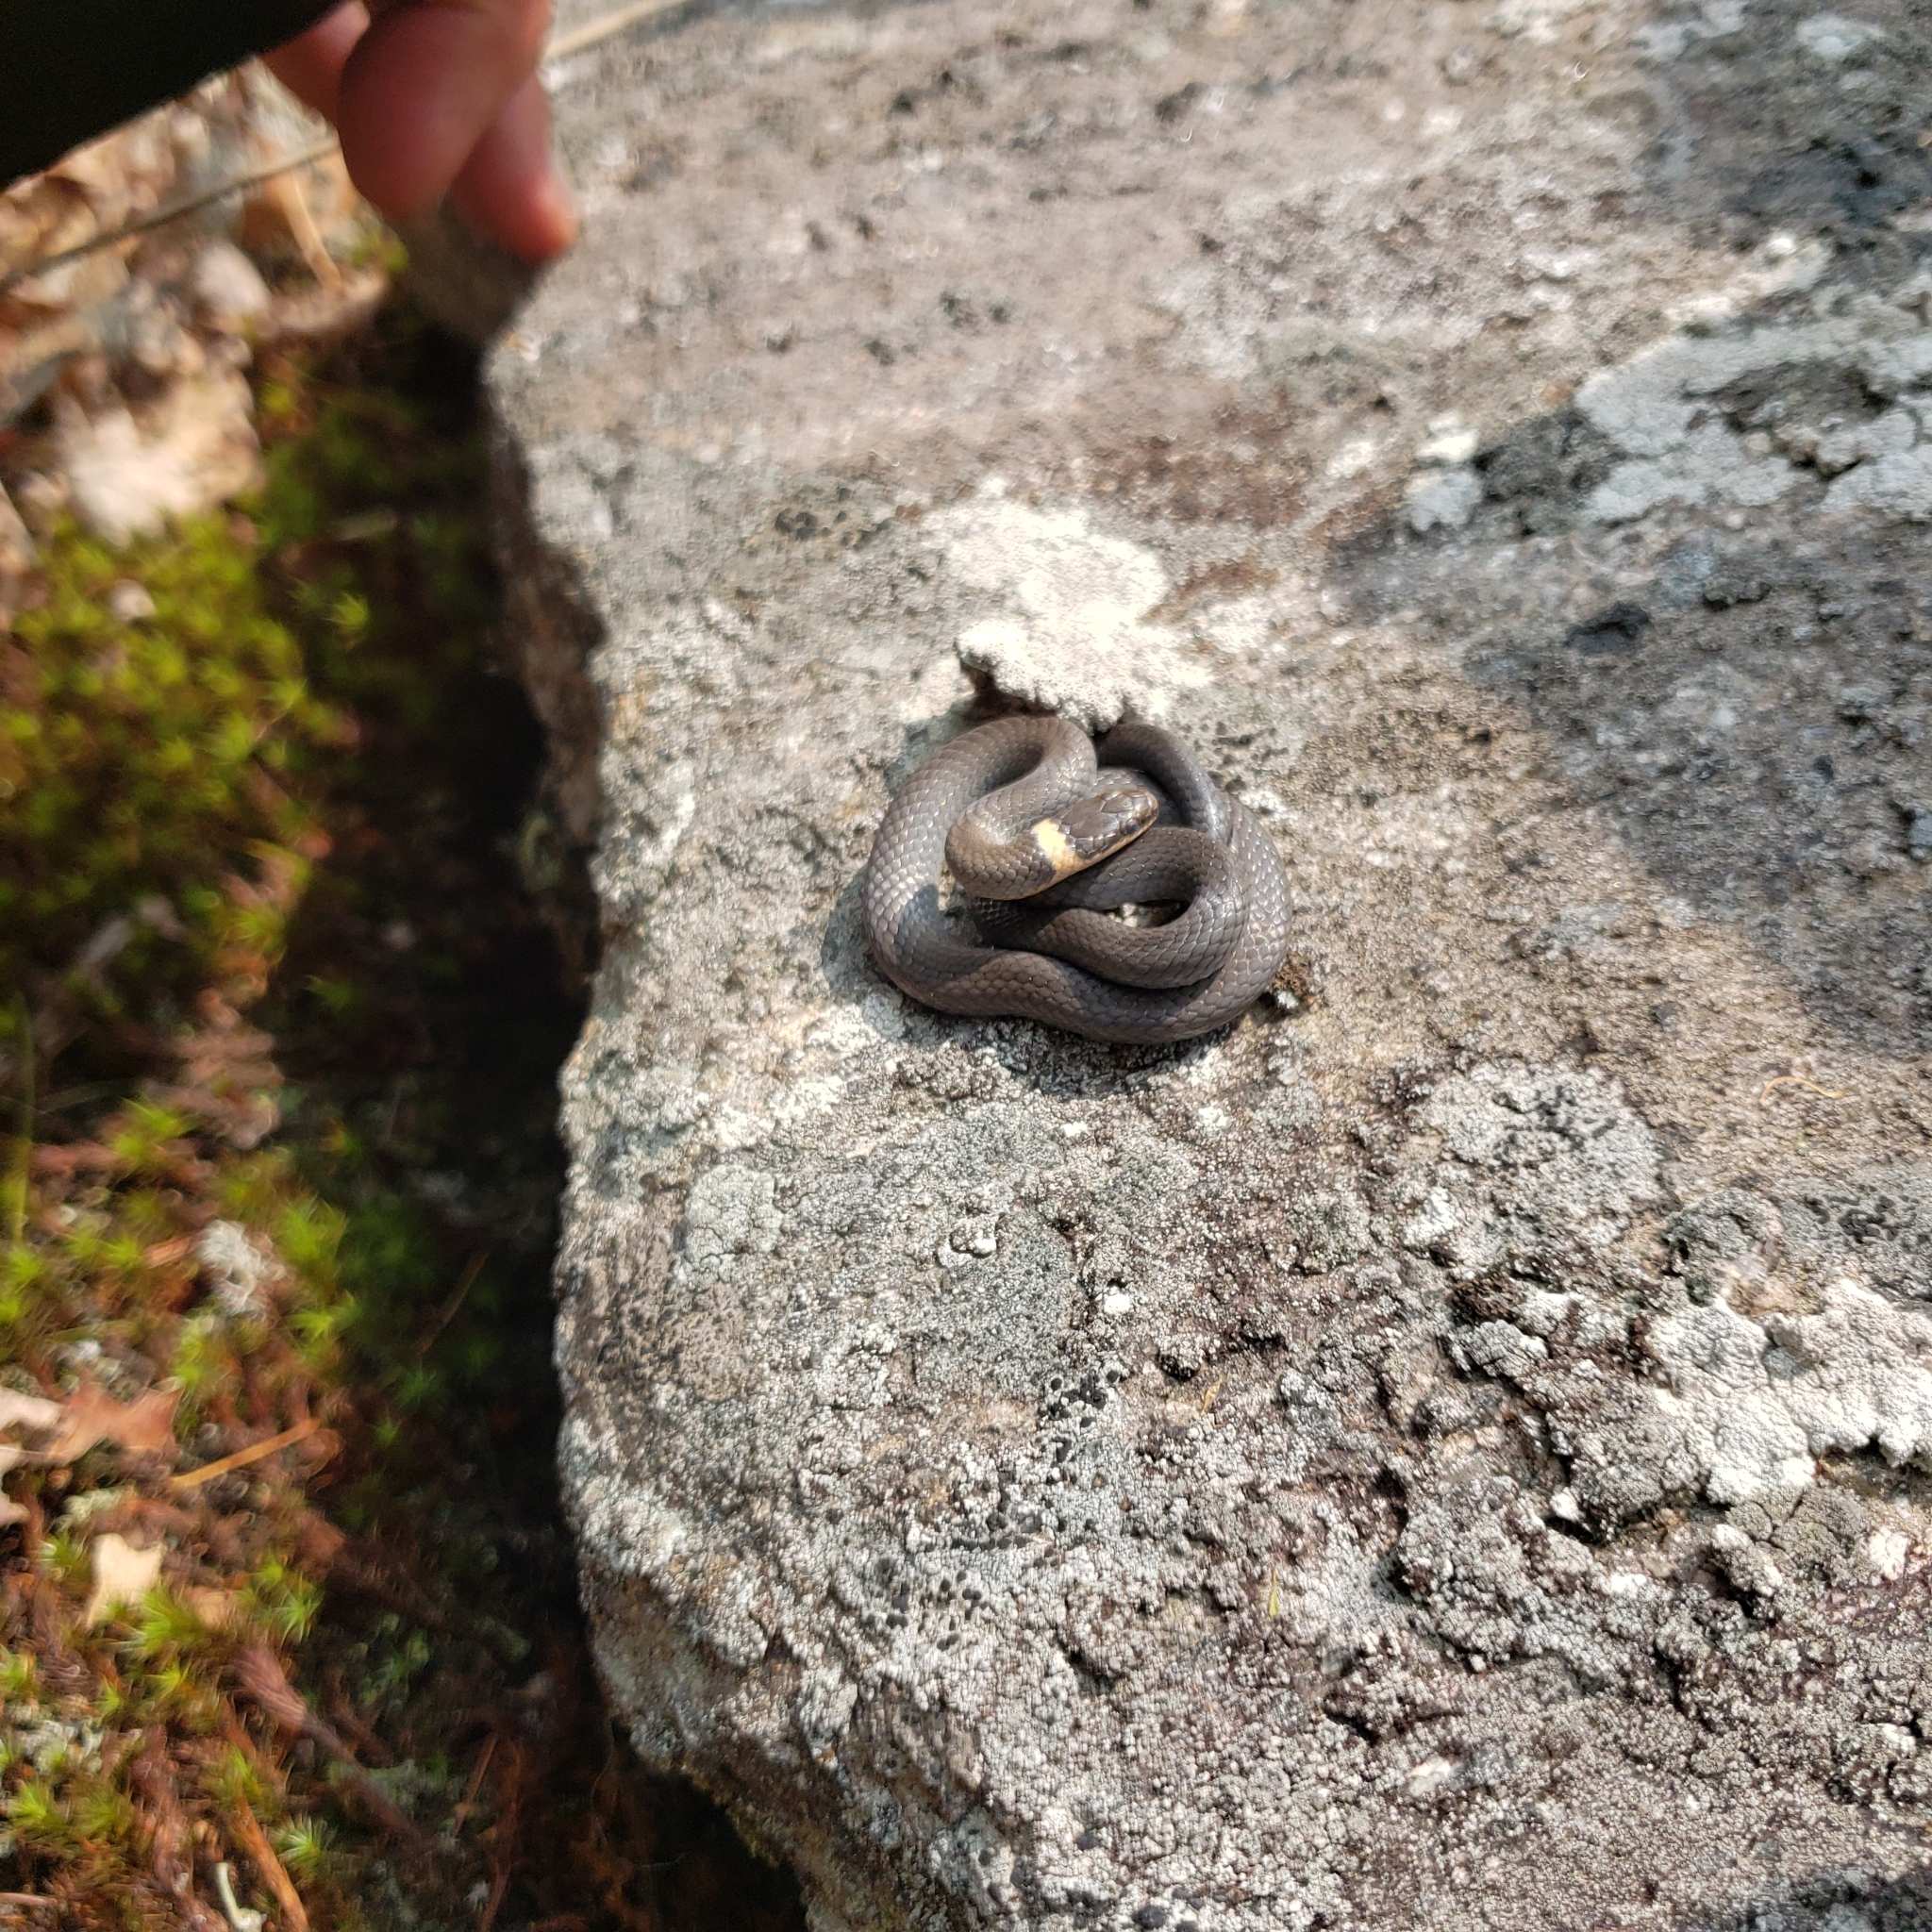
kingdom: Animalia
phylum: Chordata
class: Squamata
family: Colubridae
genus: Diadophis
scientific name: Diadophis punctatus
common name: Ringneck snake
